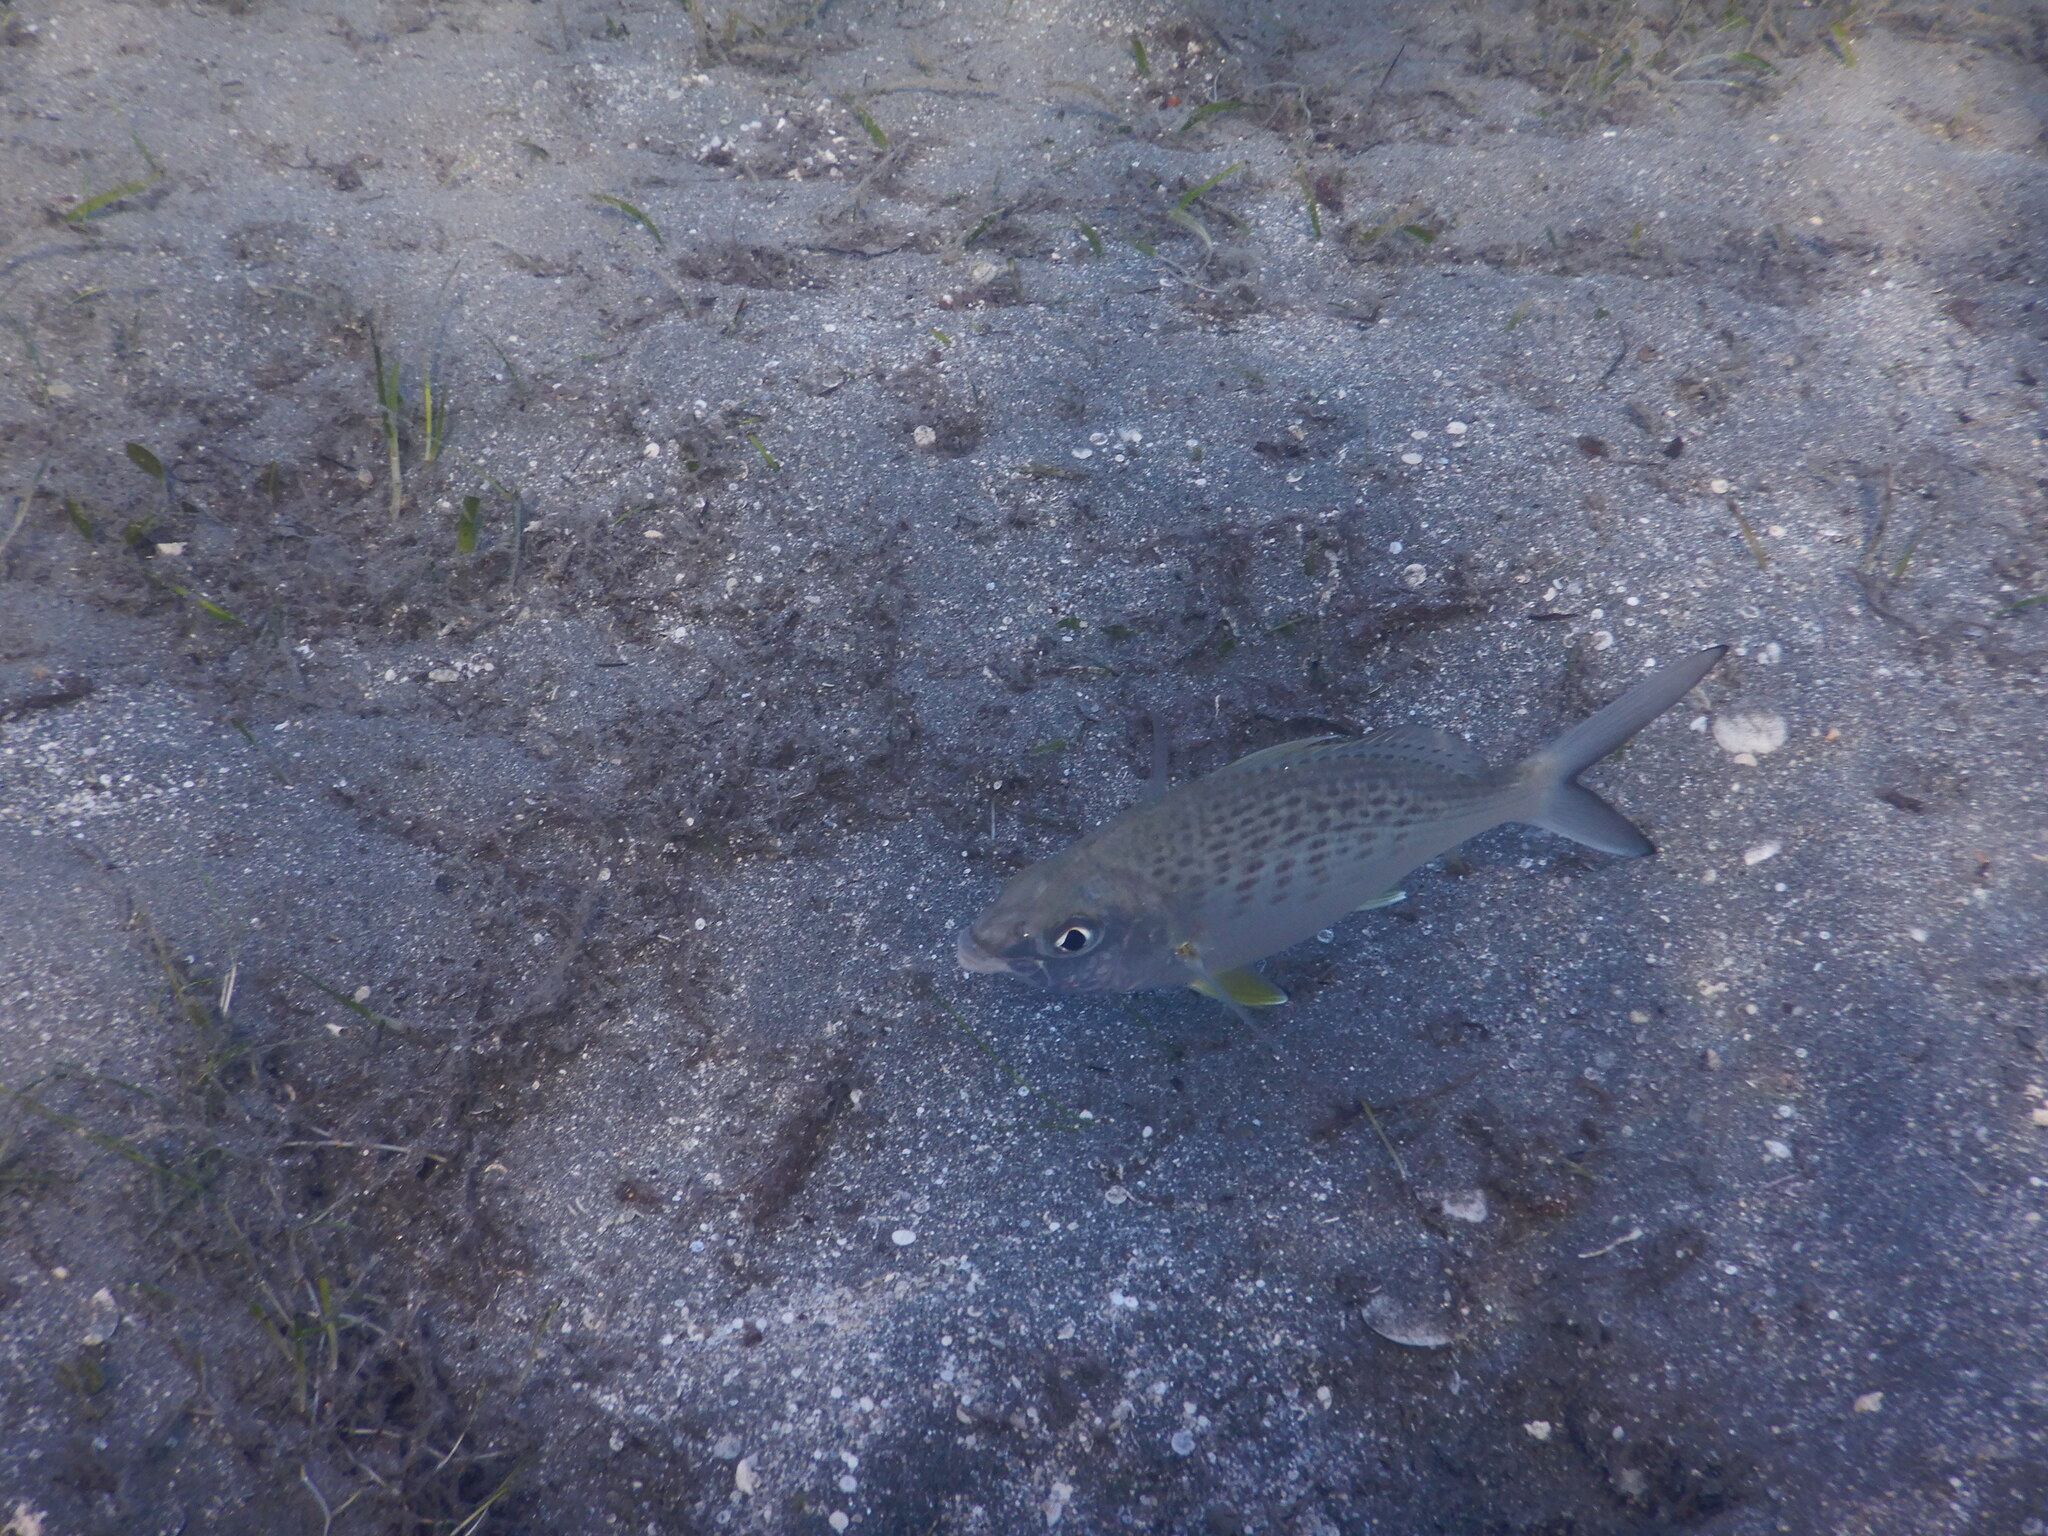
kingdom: Animalia
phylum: Chordata
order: Perciformes
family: Gerreidae
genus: Gerres
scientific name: Gerres longirostris
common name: Strongspine silver-biddy
